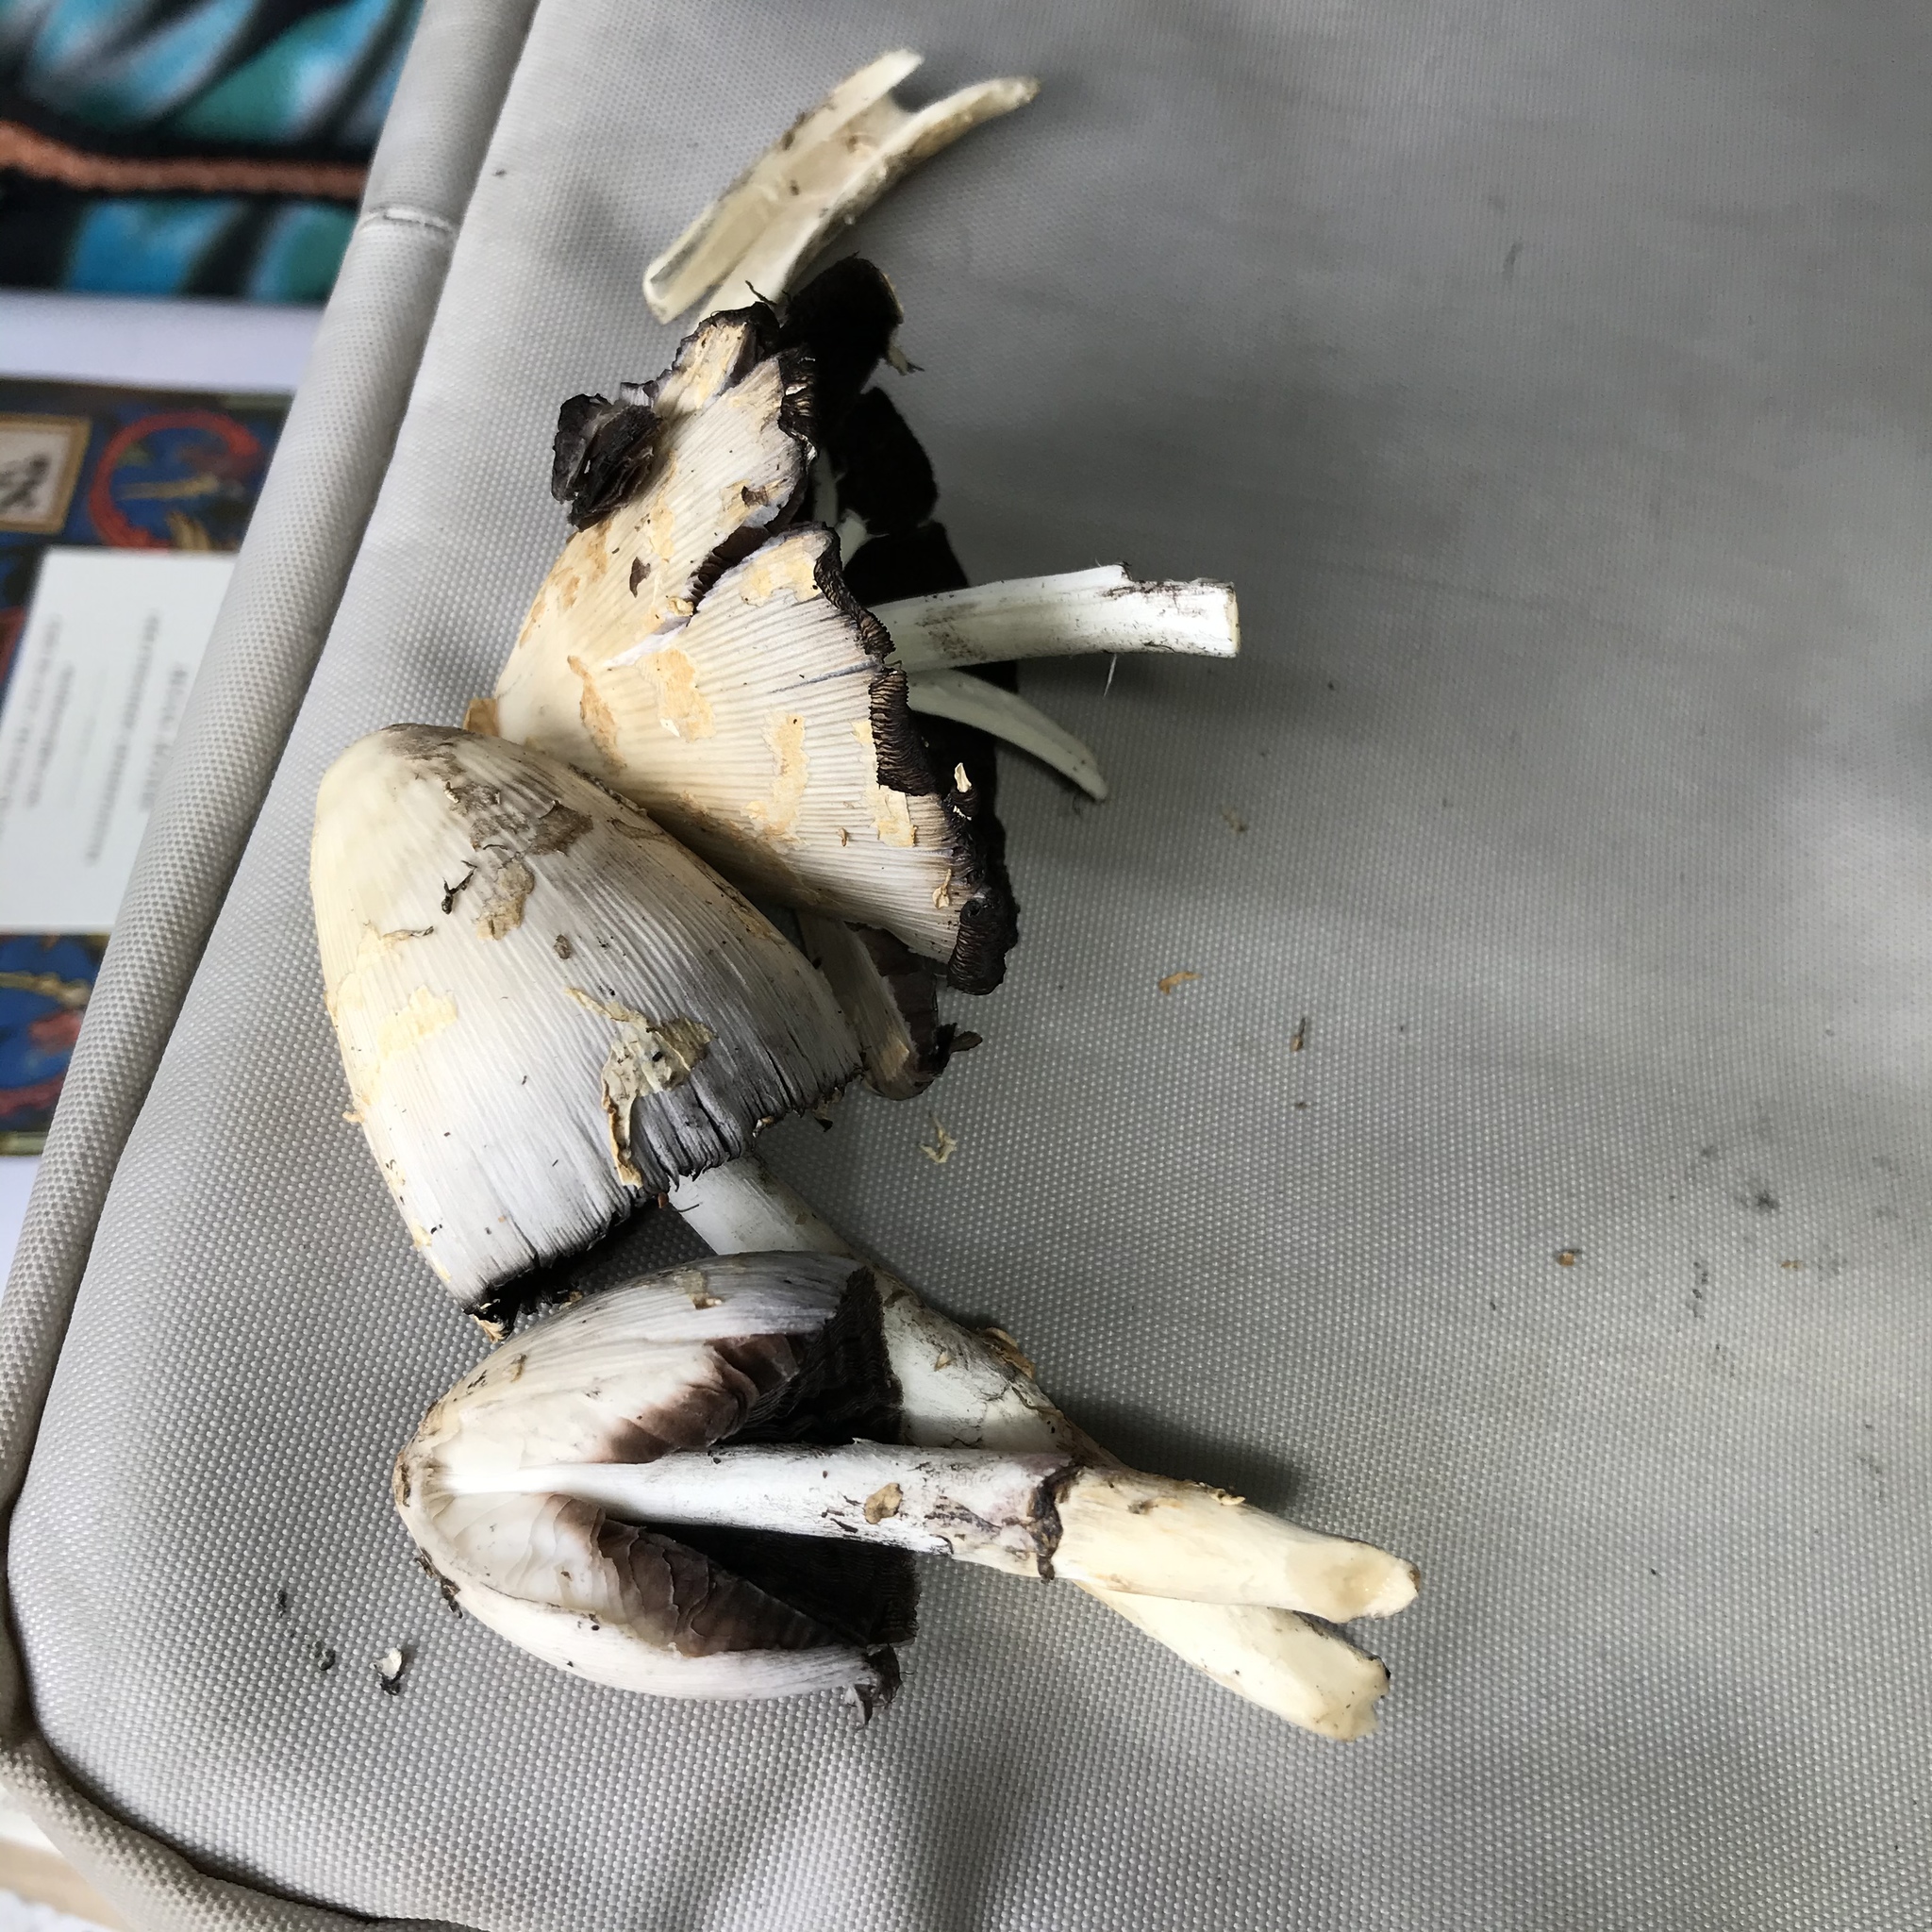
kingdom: Fungi
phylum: Basidiomycota
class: Agaricomycetes
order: Agaricales
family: Psathyrellaceae
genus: Coprinopsis
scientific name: Coprinopsis variegata
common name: Scaly ink cap
